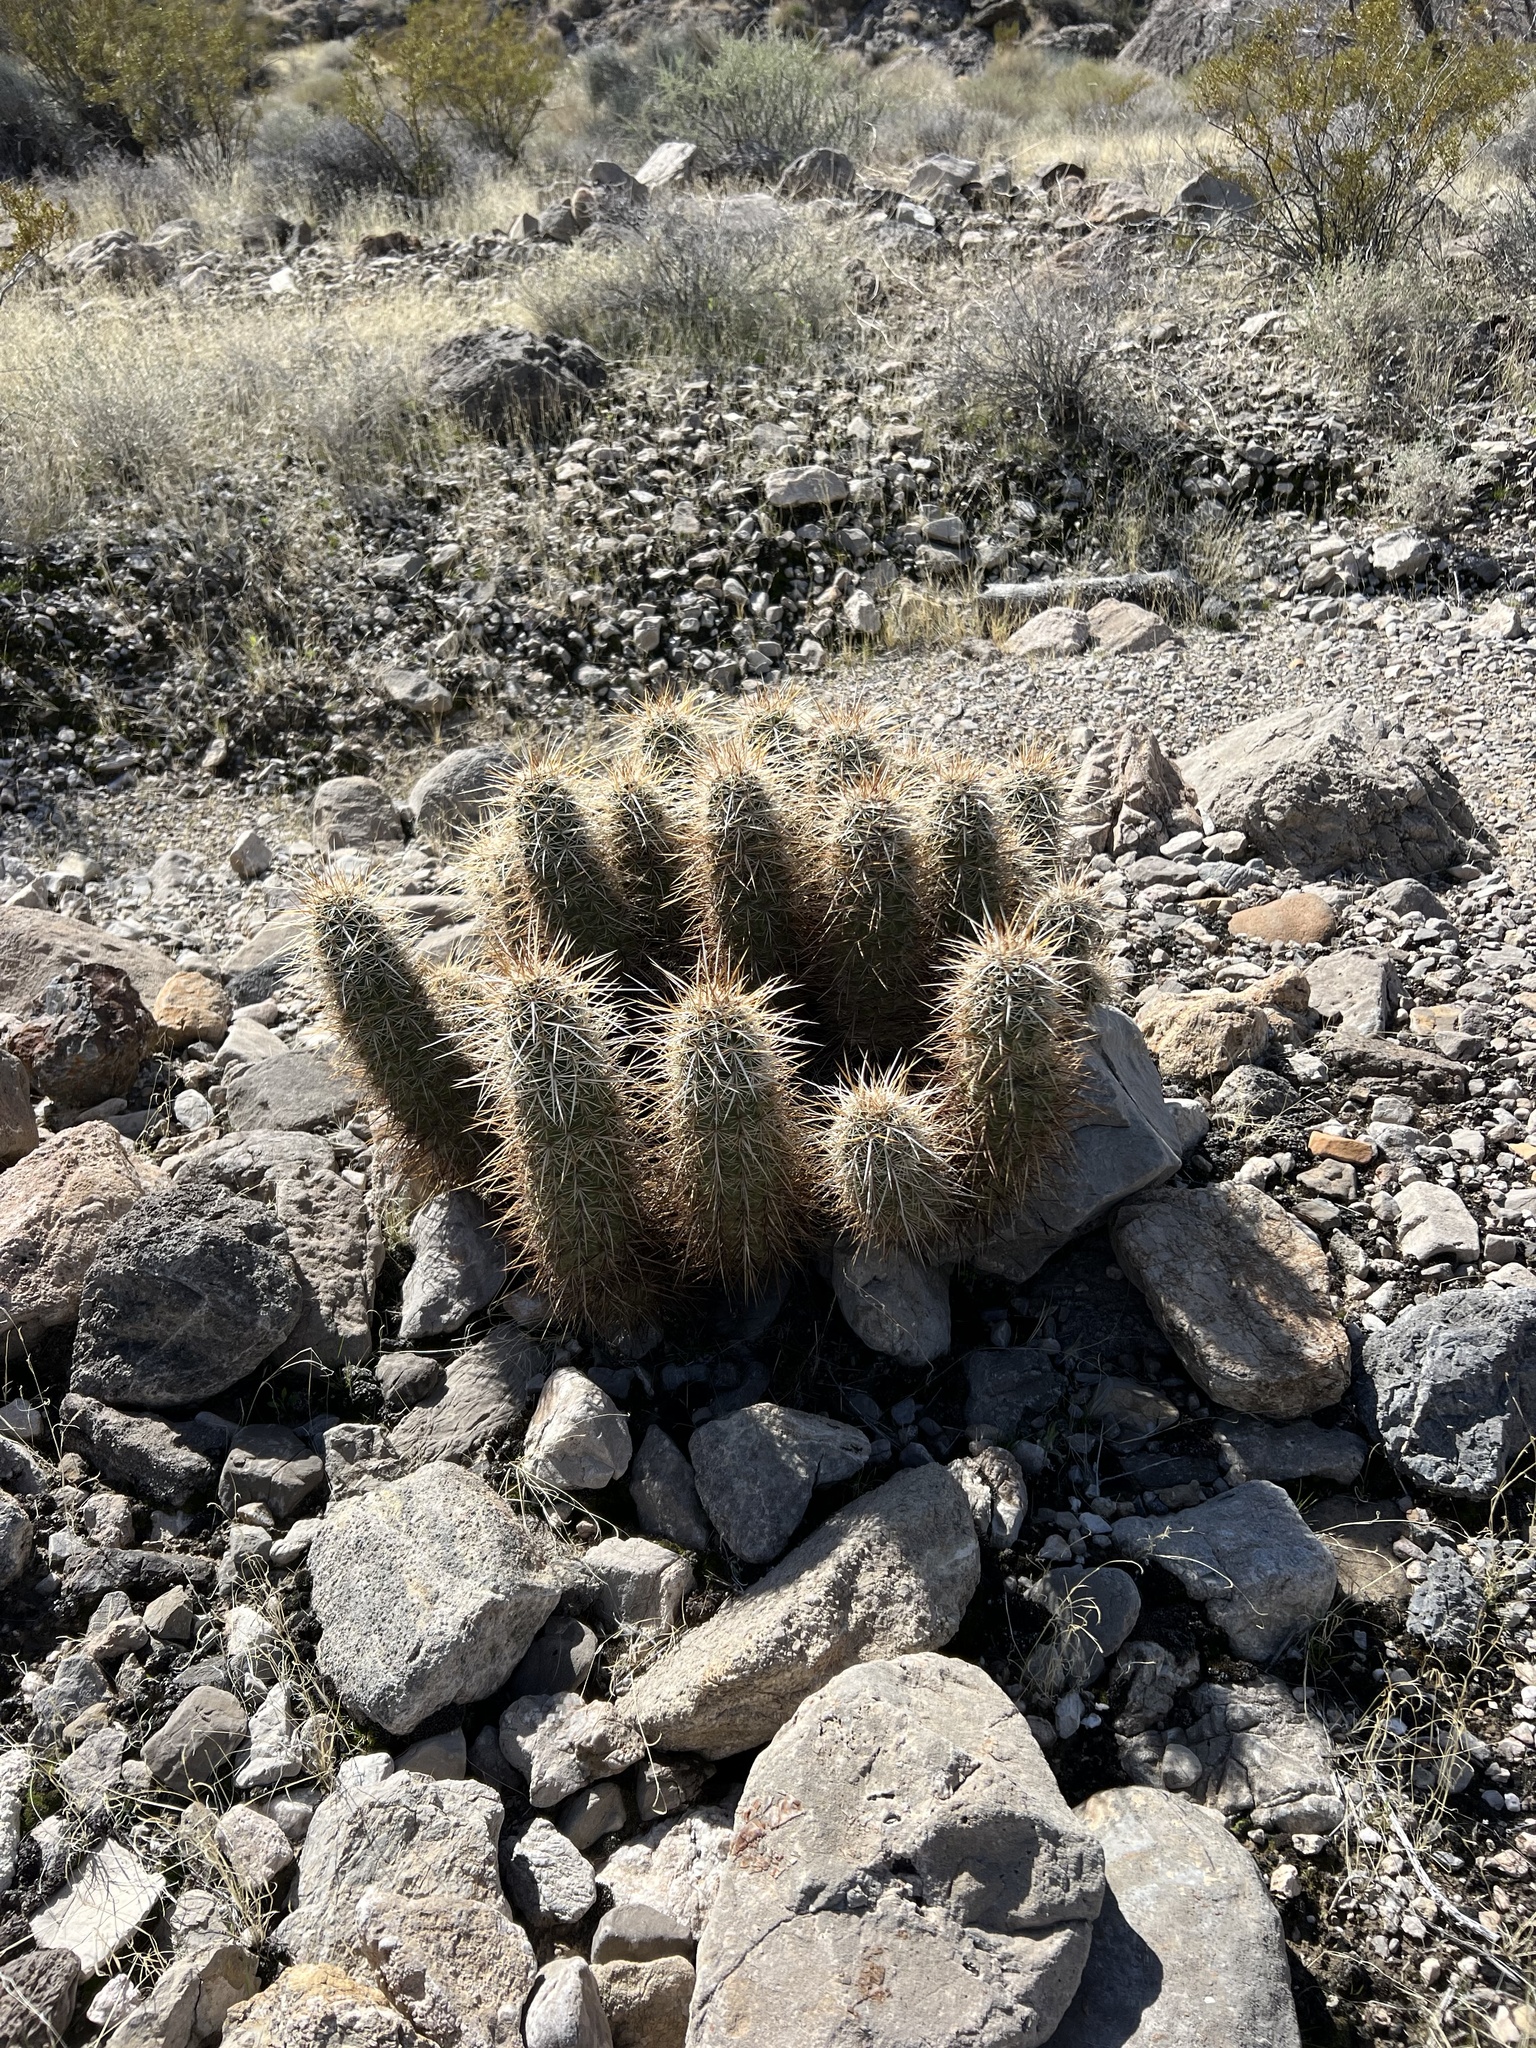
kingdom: Plantae
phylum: Tracheophyta
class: Magnoliopsida
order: Caryophyllales
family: Cactaceae
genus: Echinocereus
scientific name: Echinocereus engelmannii
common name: Engelmann's hedgehog cactus
